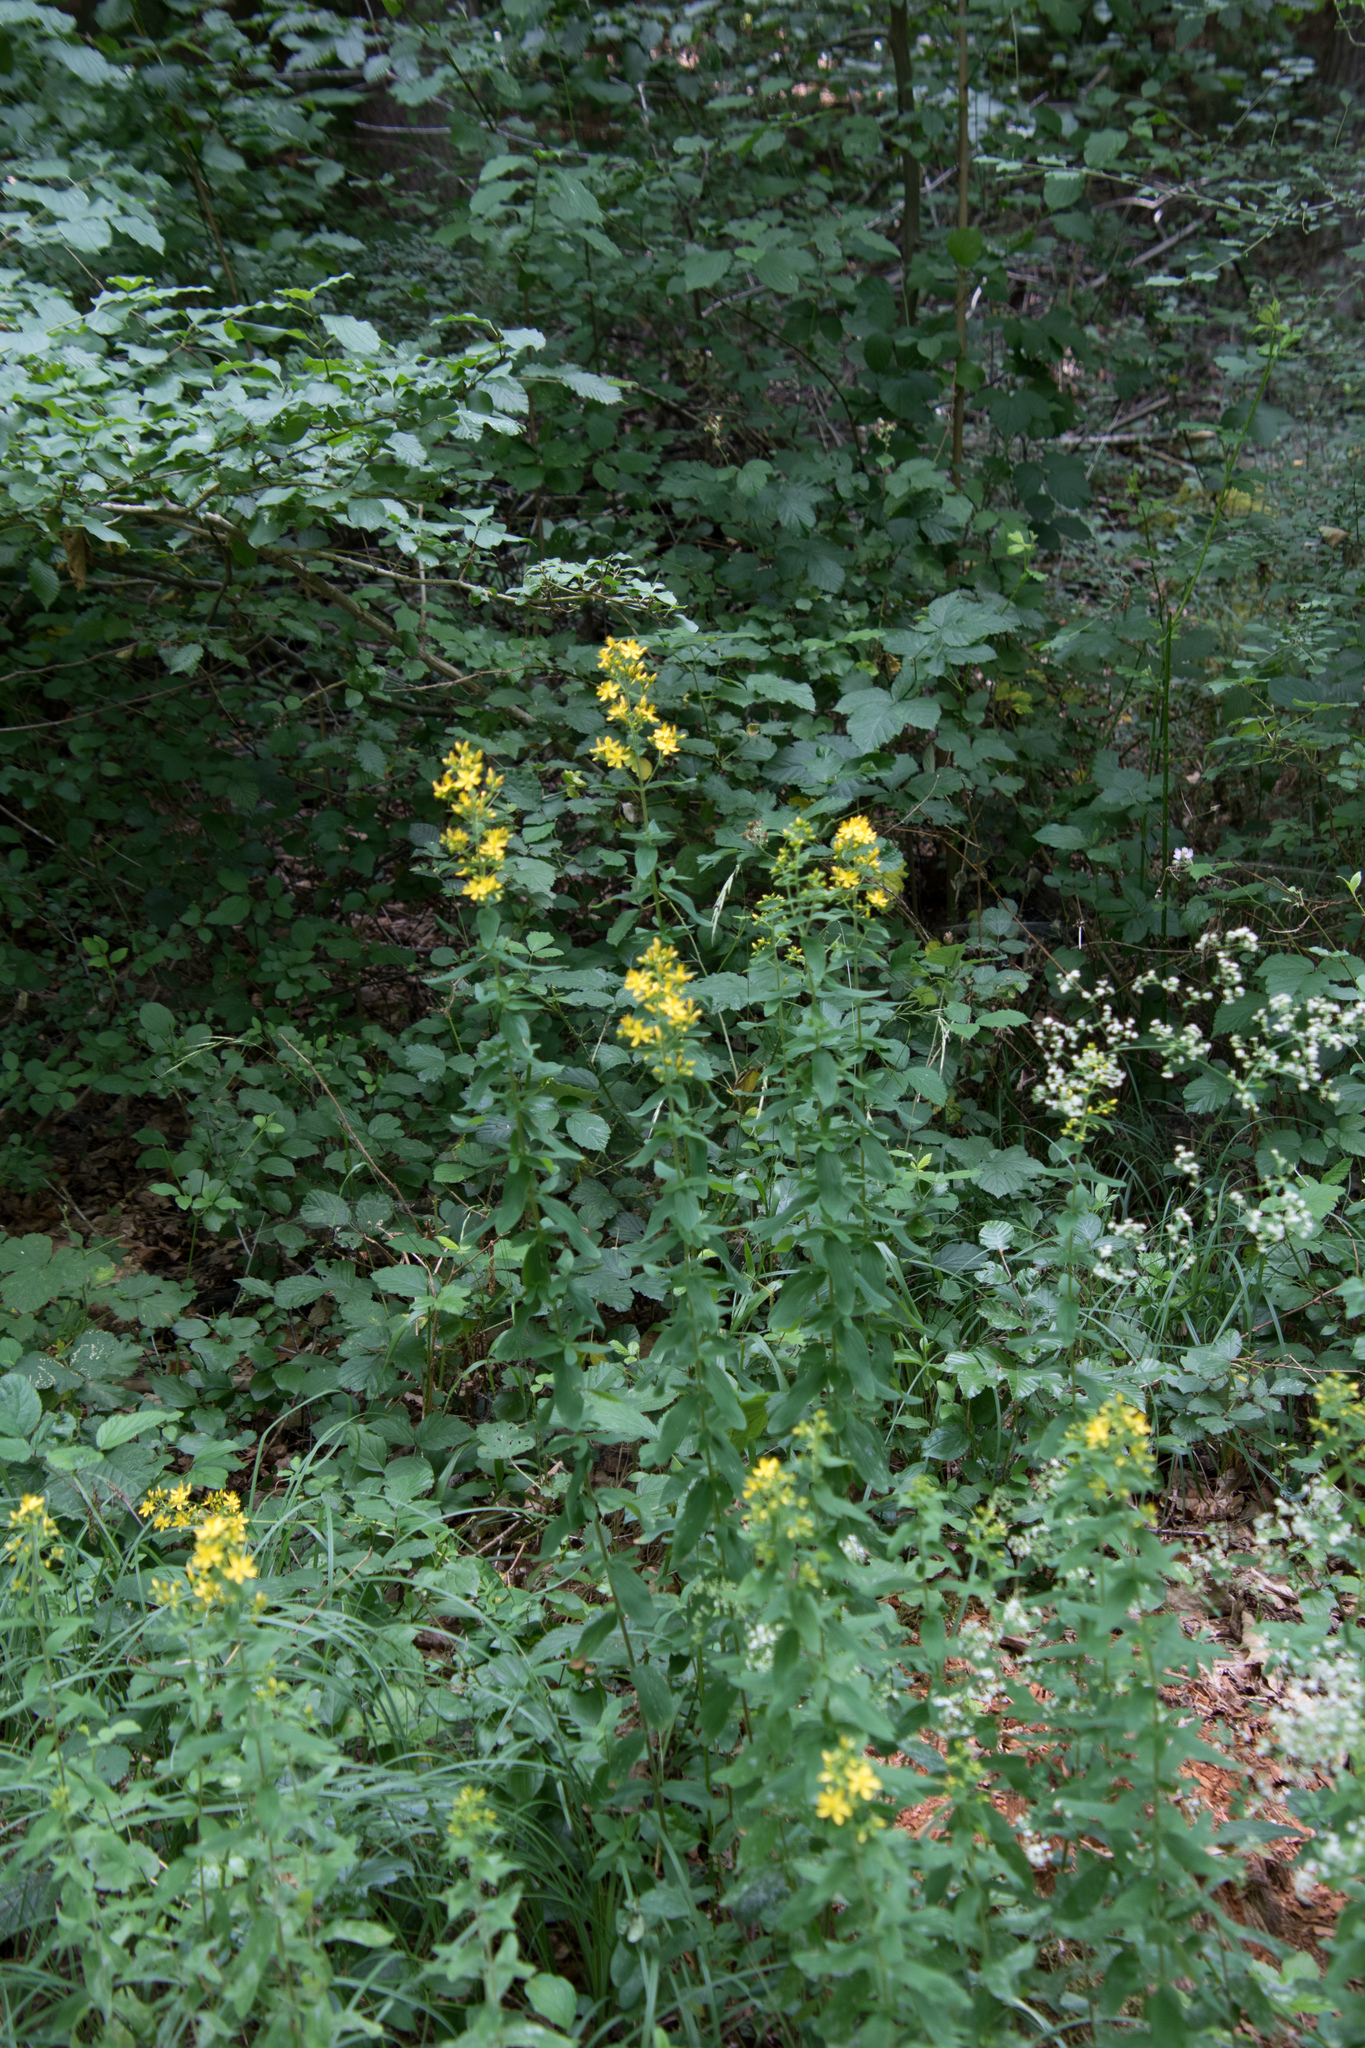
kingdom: Plantae
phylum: Tracheophyta
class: Magnoliopsida
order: Malpighiales
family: Hypericaceae
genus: Hypericum
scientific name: Hypericum perforatum
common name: Common st. johnswort
